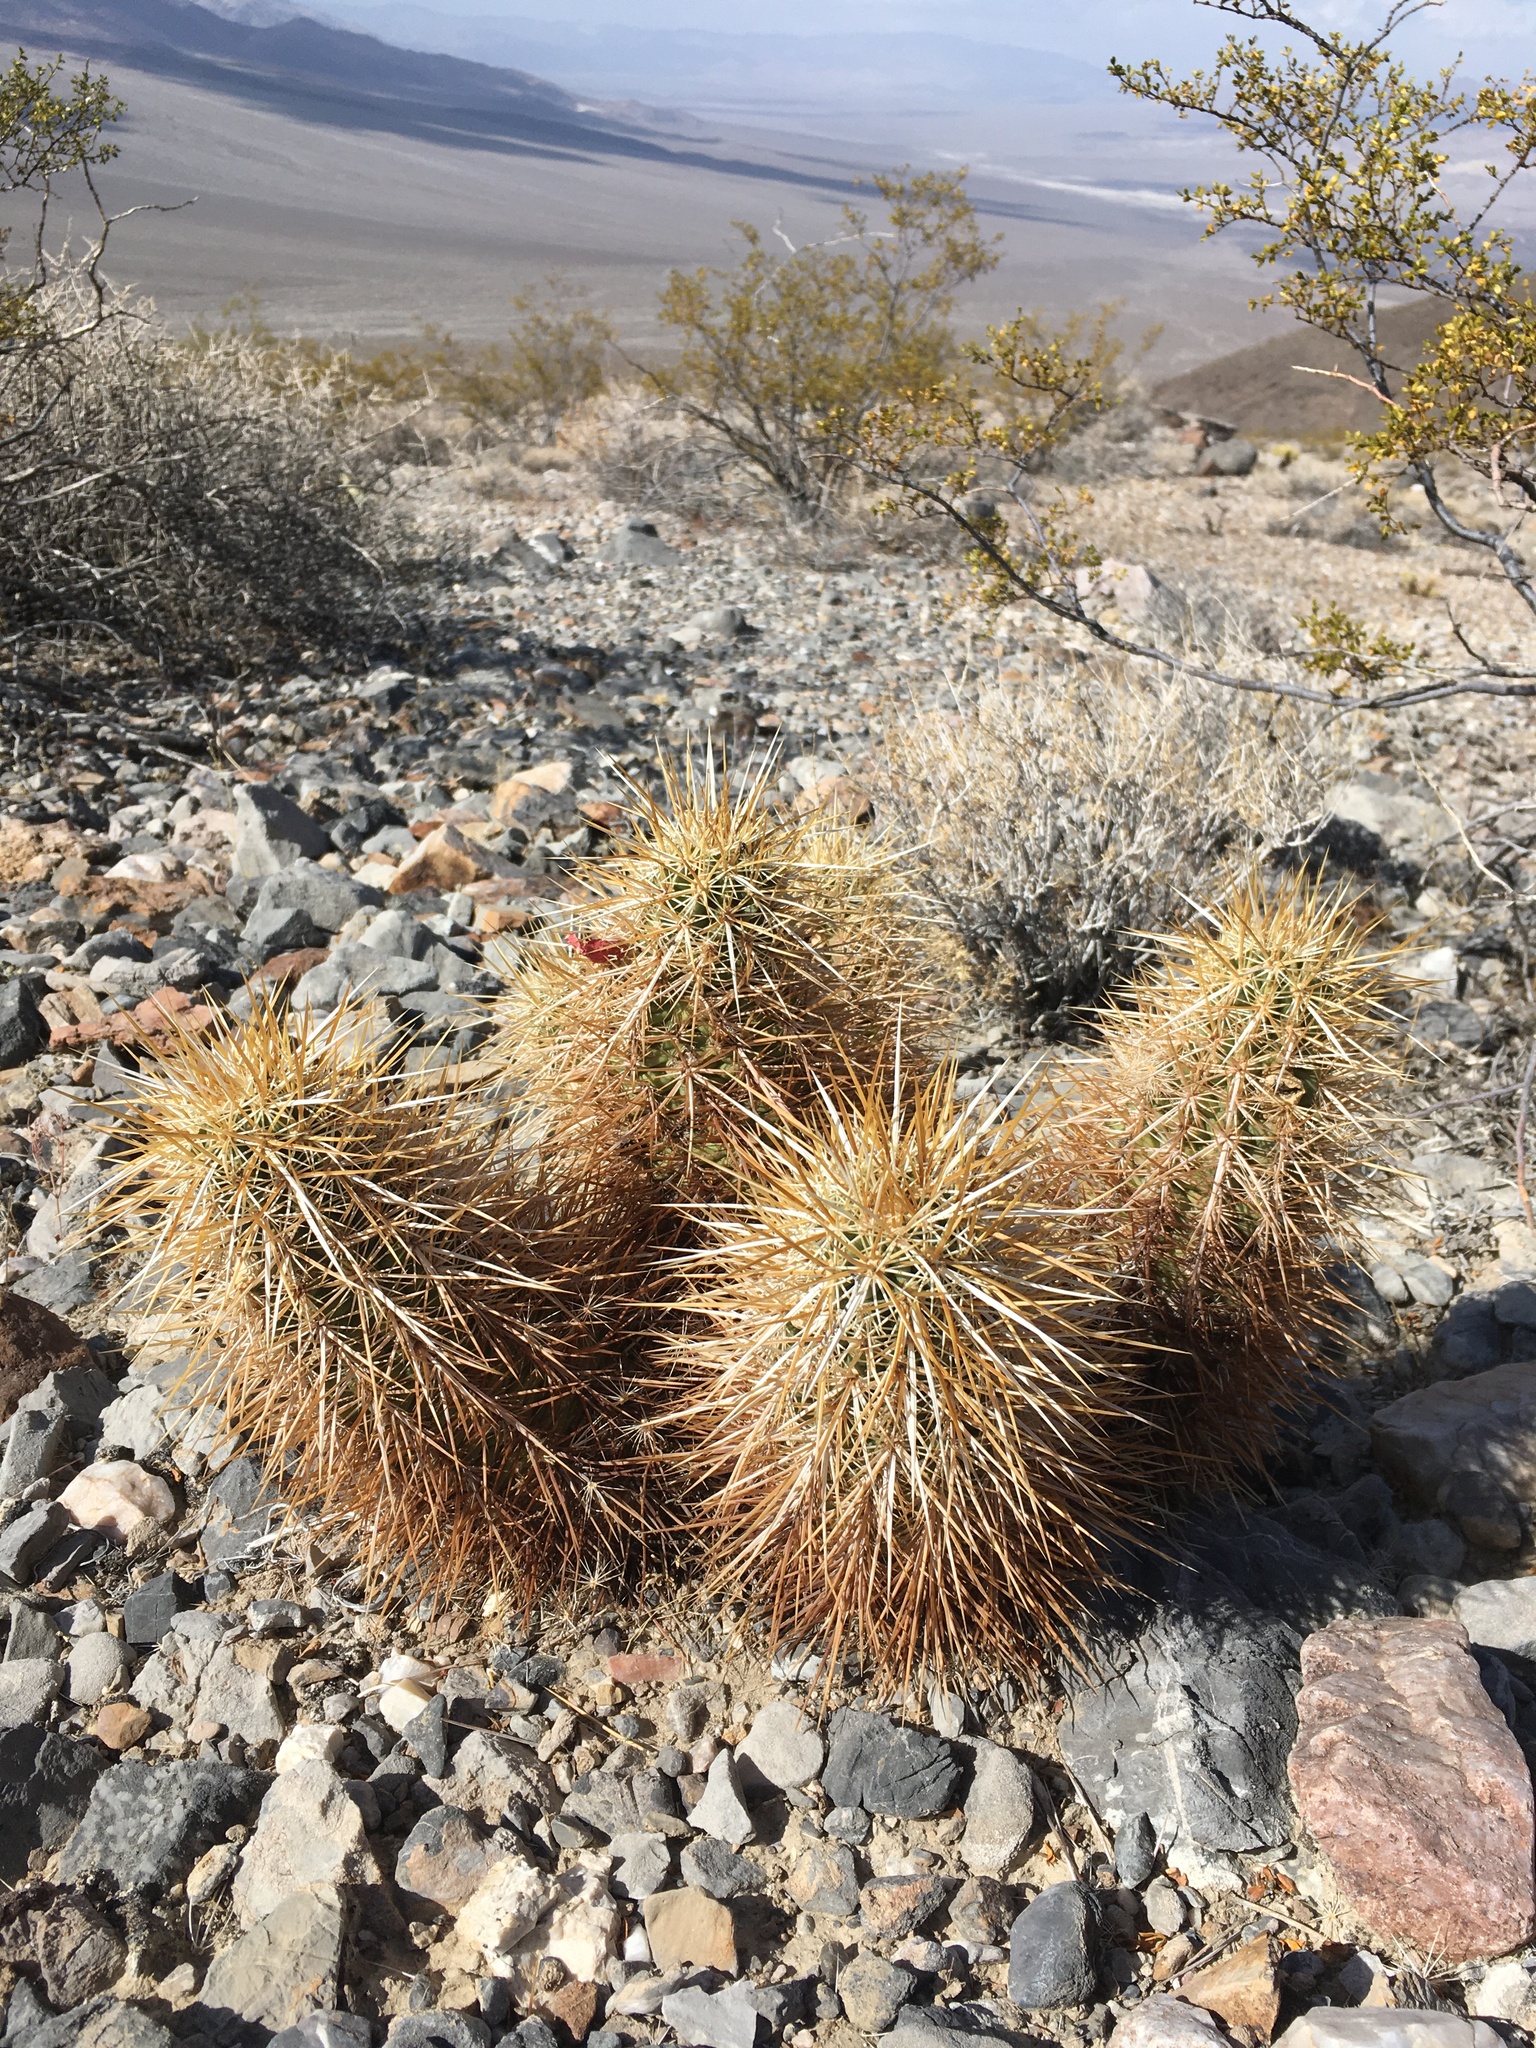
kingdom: Plantae
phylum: Tracheophyta
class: Magnoliopsida
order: Caryophyllales
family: Cactaceae
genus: Echinocereus
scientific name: Echinocereus engelmannii
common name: Engelmann's hedgehog cactus
